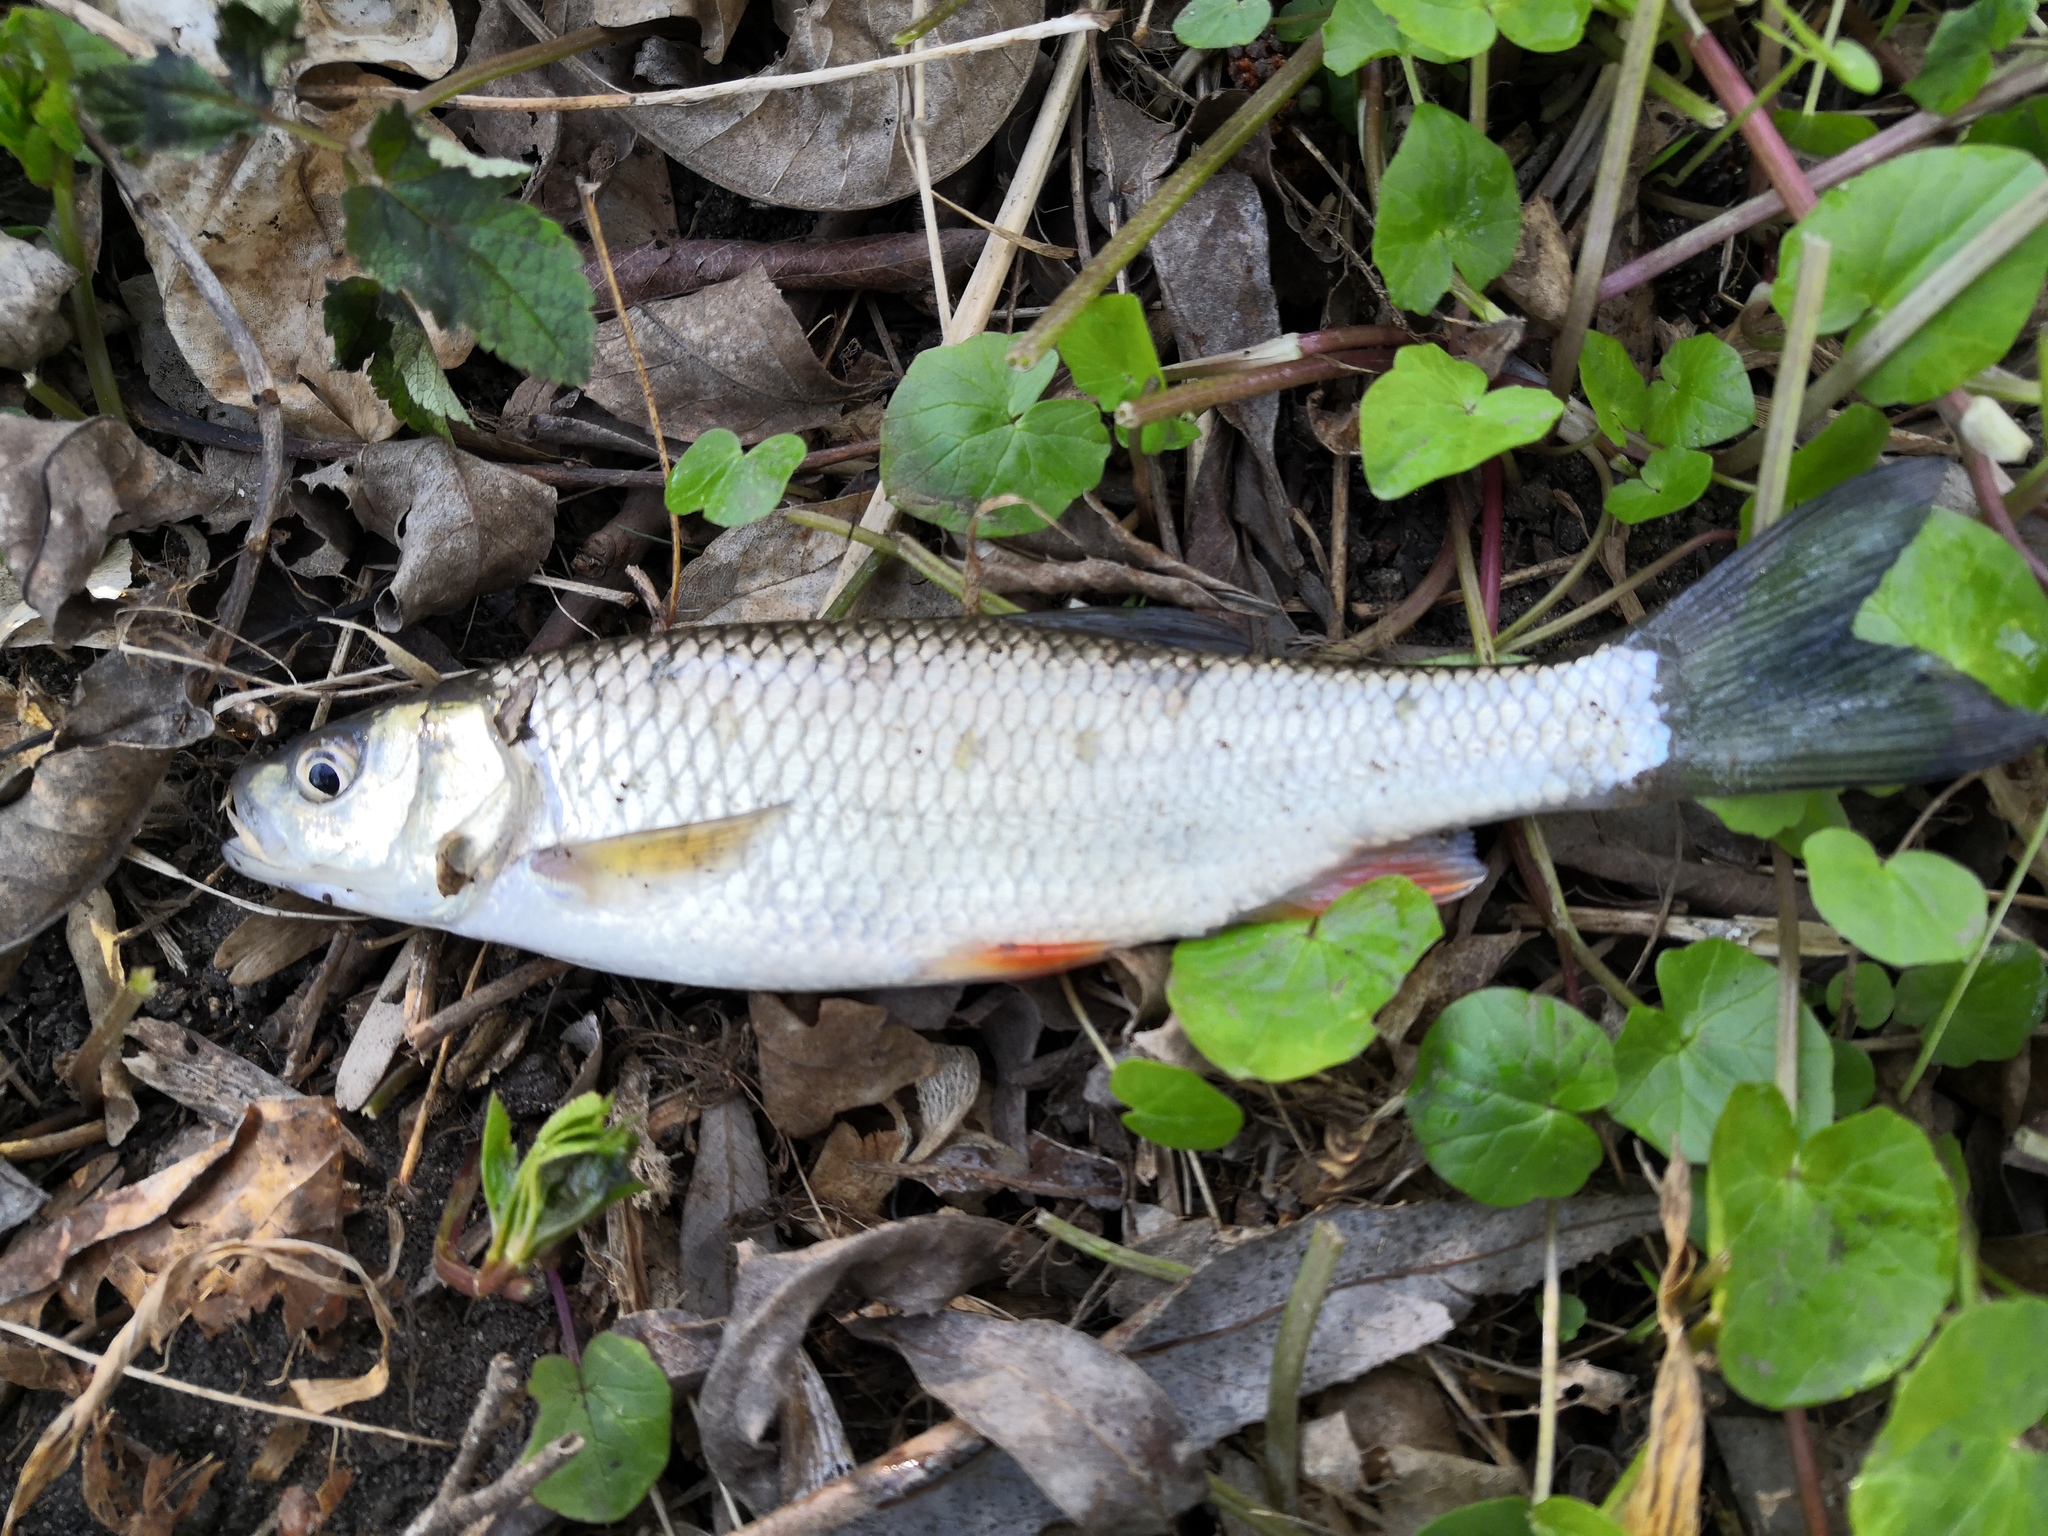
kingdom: Animalia
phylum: Chordata
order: Cypriniformes
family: Cyprinidae
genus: Squalius
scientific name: Squalius cephalus
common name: Chub
